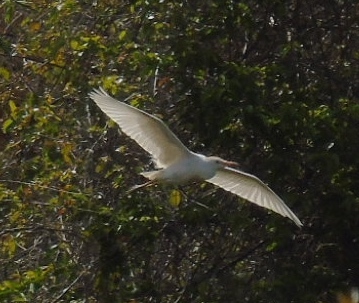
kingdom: Animalia
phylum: Chordata
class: Aves
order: Pelecaniformes
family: Ardeidae
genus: Bubulcus
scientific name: Bubulcus ibis
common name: Cattle egret
